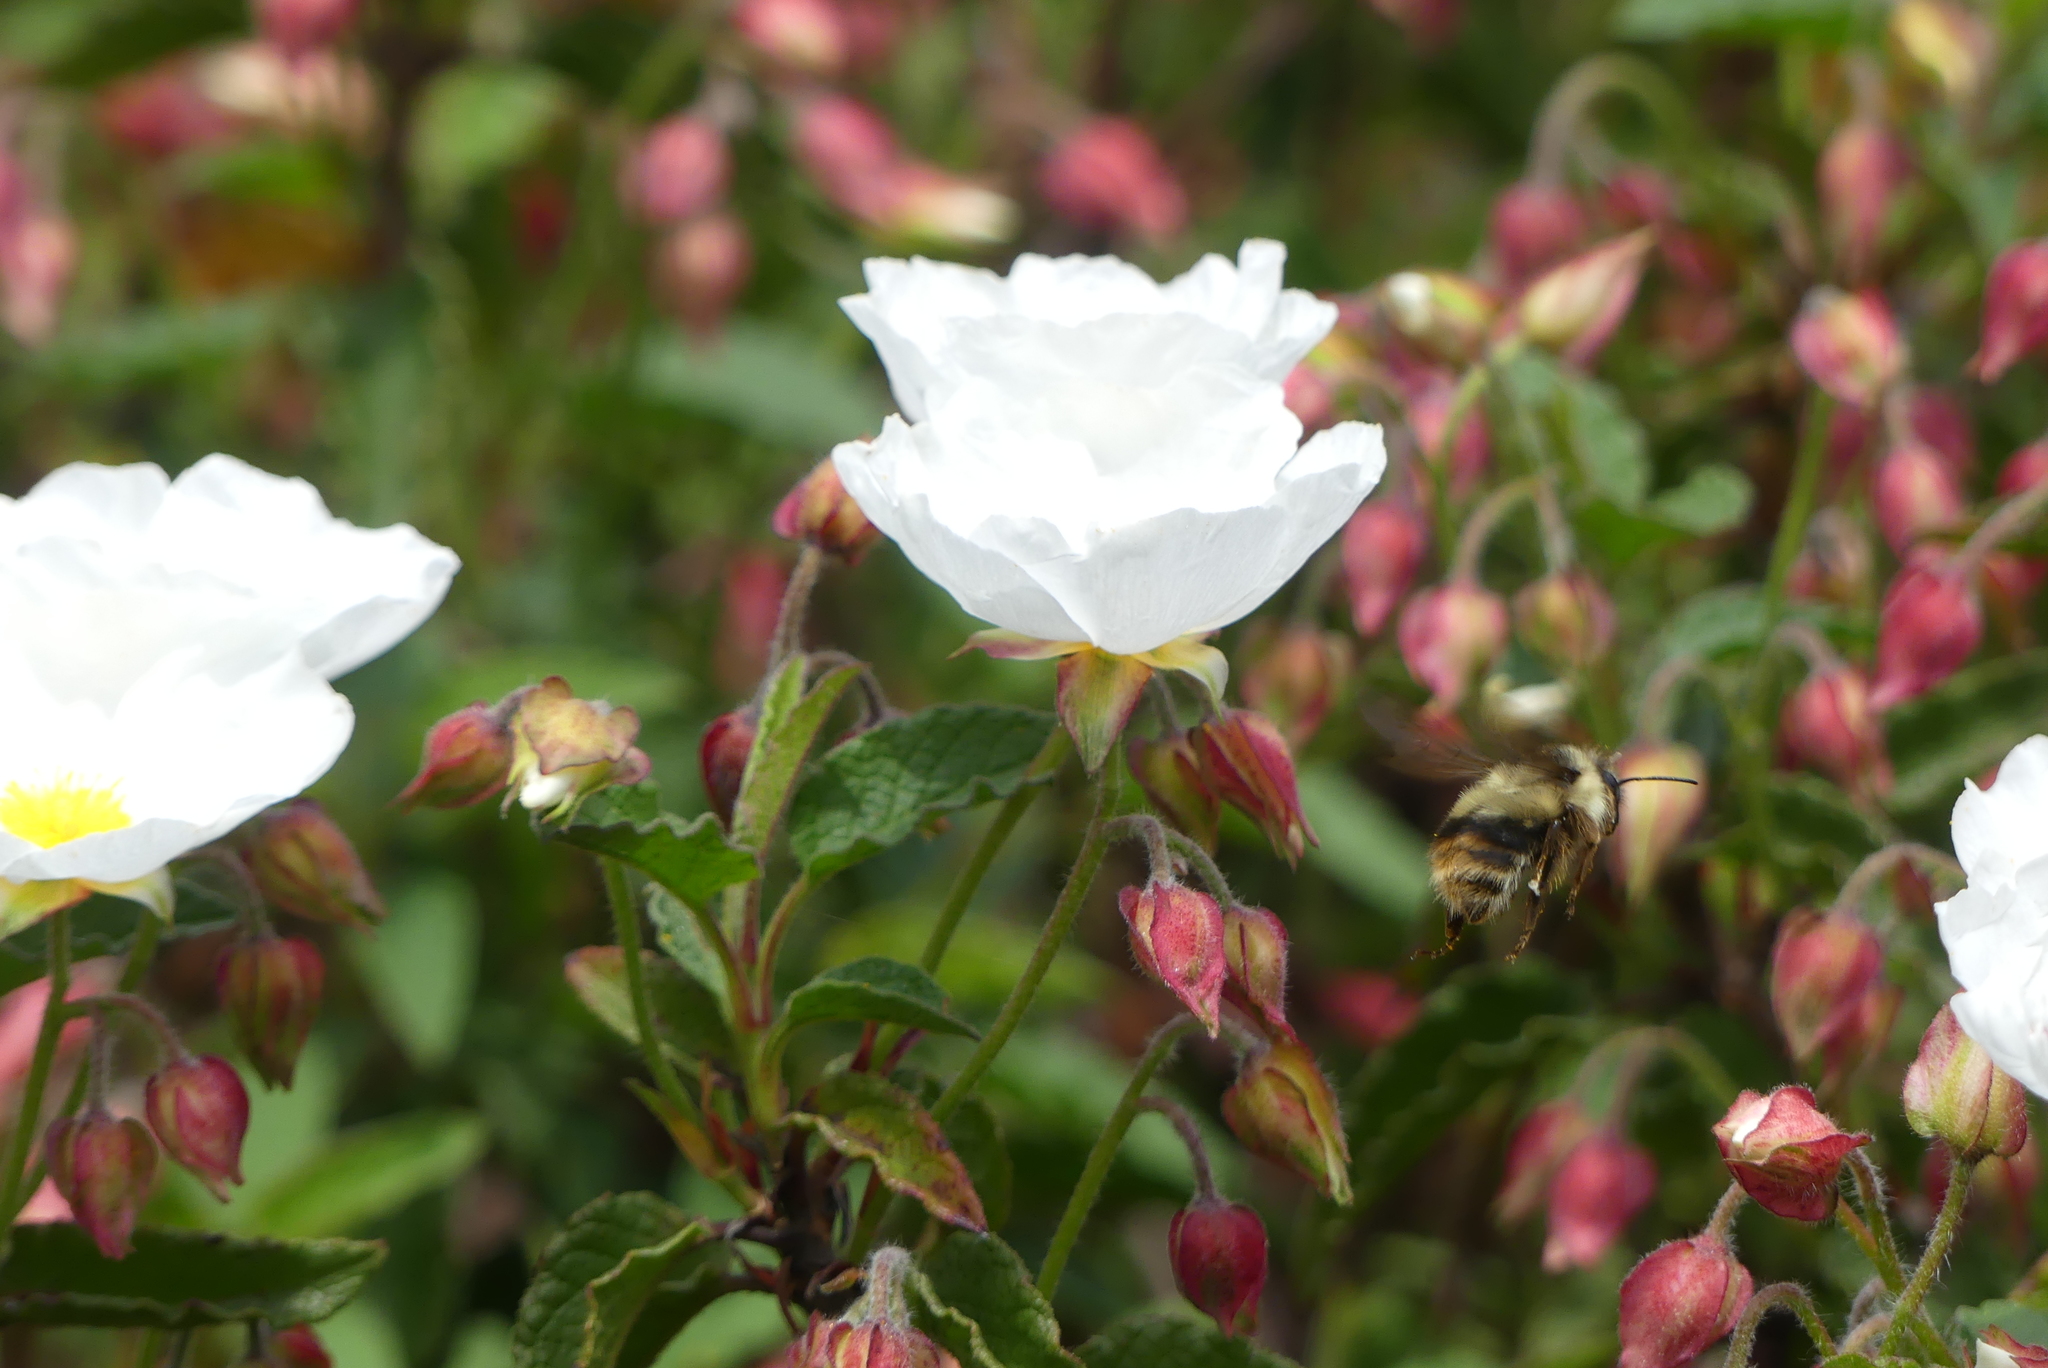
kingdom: Animalia
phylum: Arthropoda
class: Insecta
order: Hymenoptera
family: Apidae
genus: Bombus
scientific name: Bombus mixtus
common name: Fuzzy-horned bumble bee
